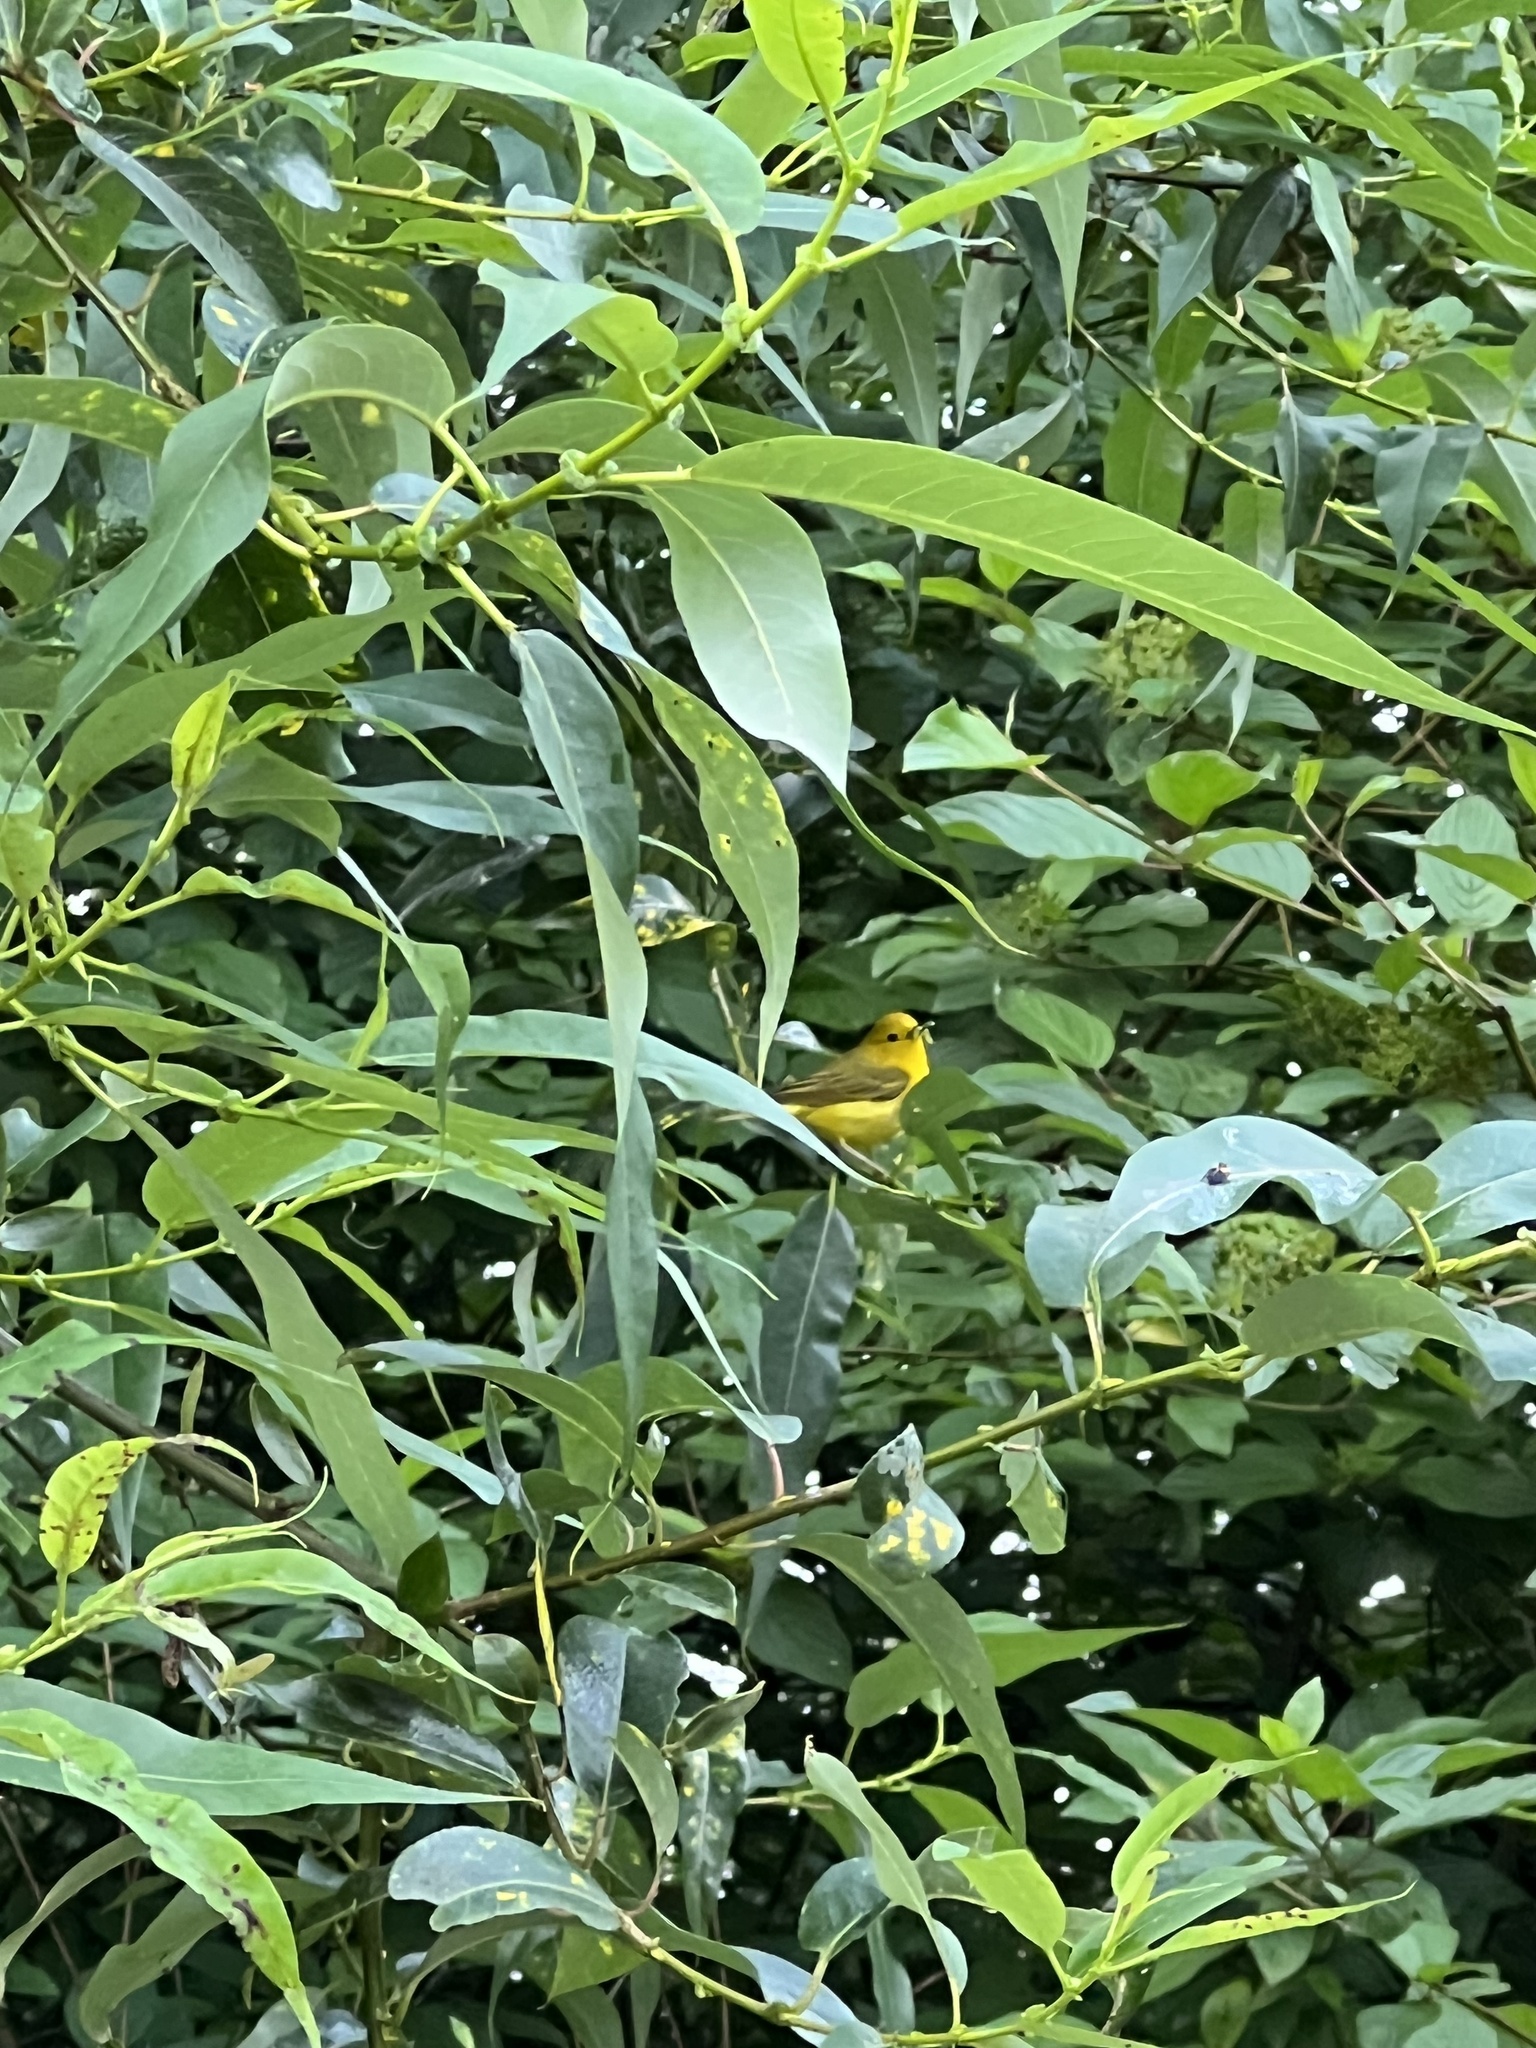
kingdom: Animalia
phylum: Chordata
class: Aves
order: Passeriformes
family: Parulidae
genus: Setophaga
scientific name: Setophaga petechia
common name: Yellow warbler
